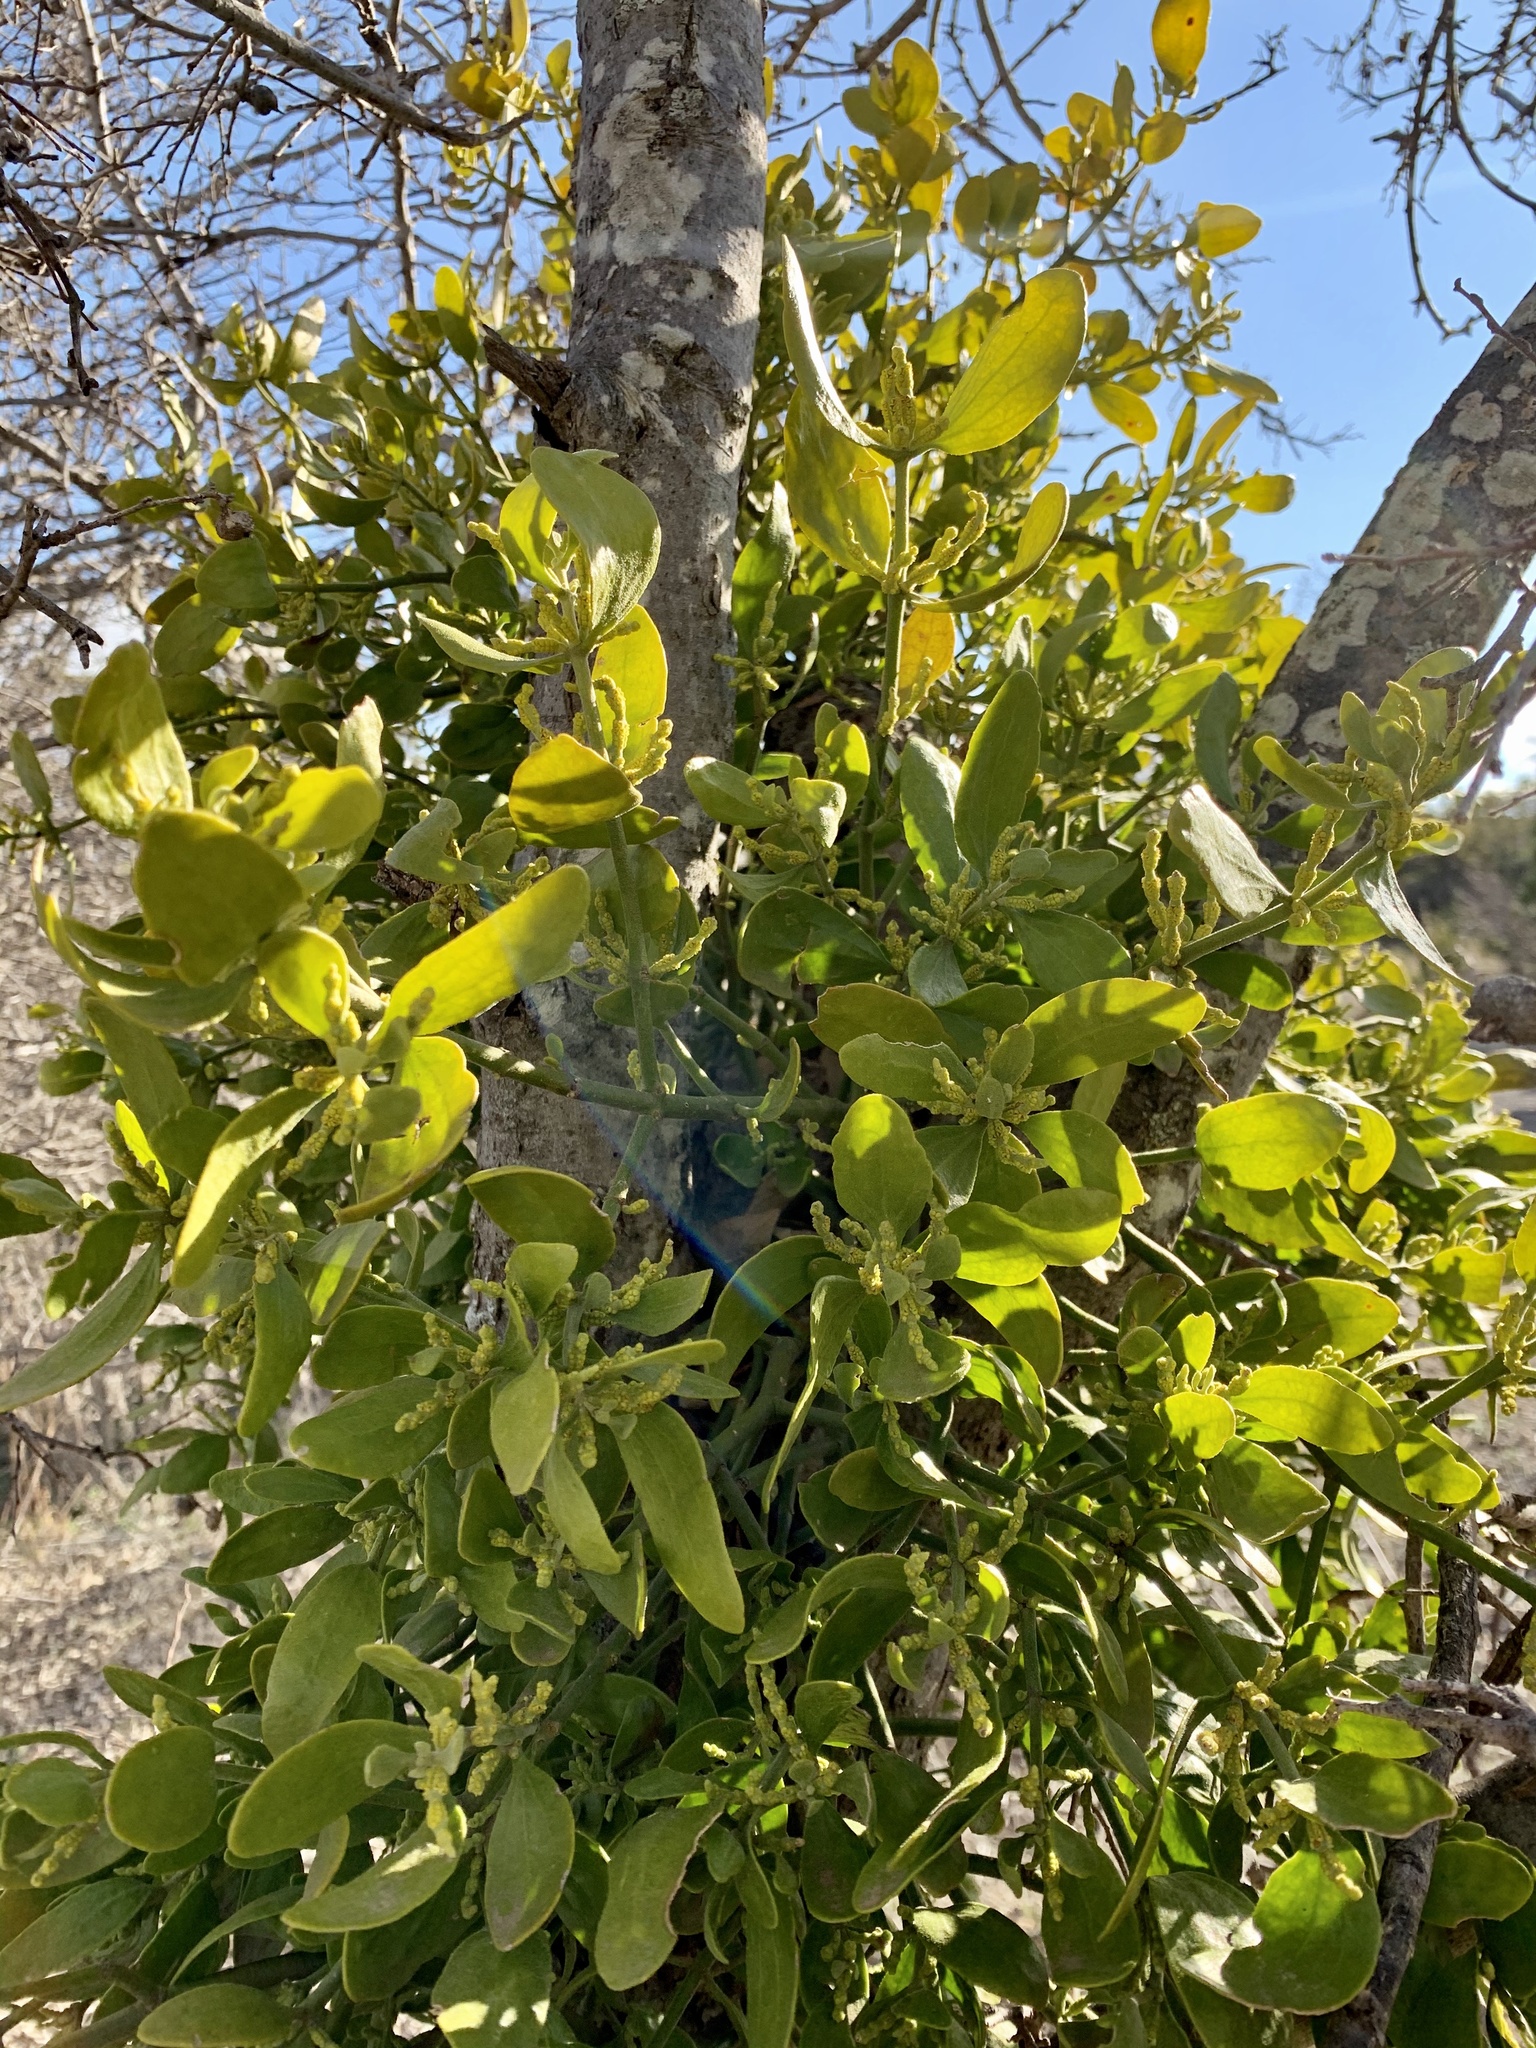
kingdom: Plantae
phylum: Tracheophyta
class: Magnoliopsida
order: Santalales
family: Viscaceae
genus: Phoradendron
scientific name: Phoradendron leucarpum
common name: Pacific mistletoe
